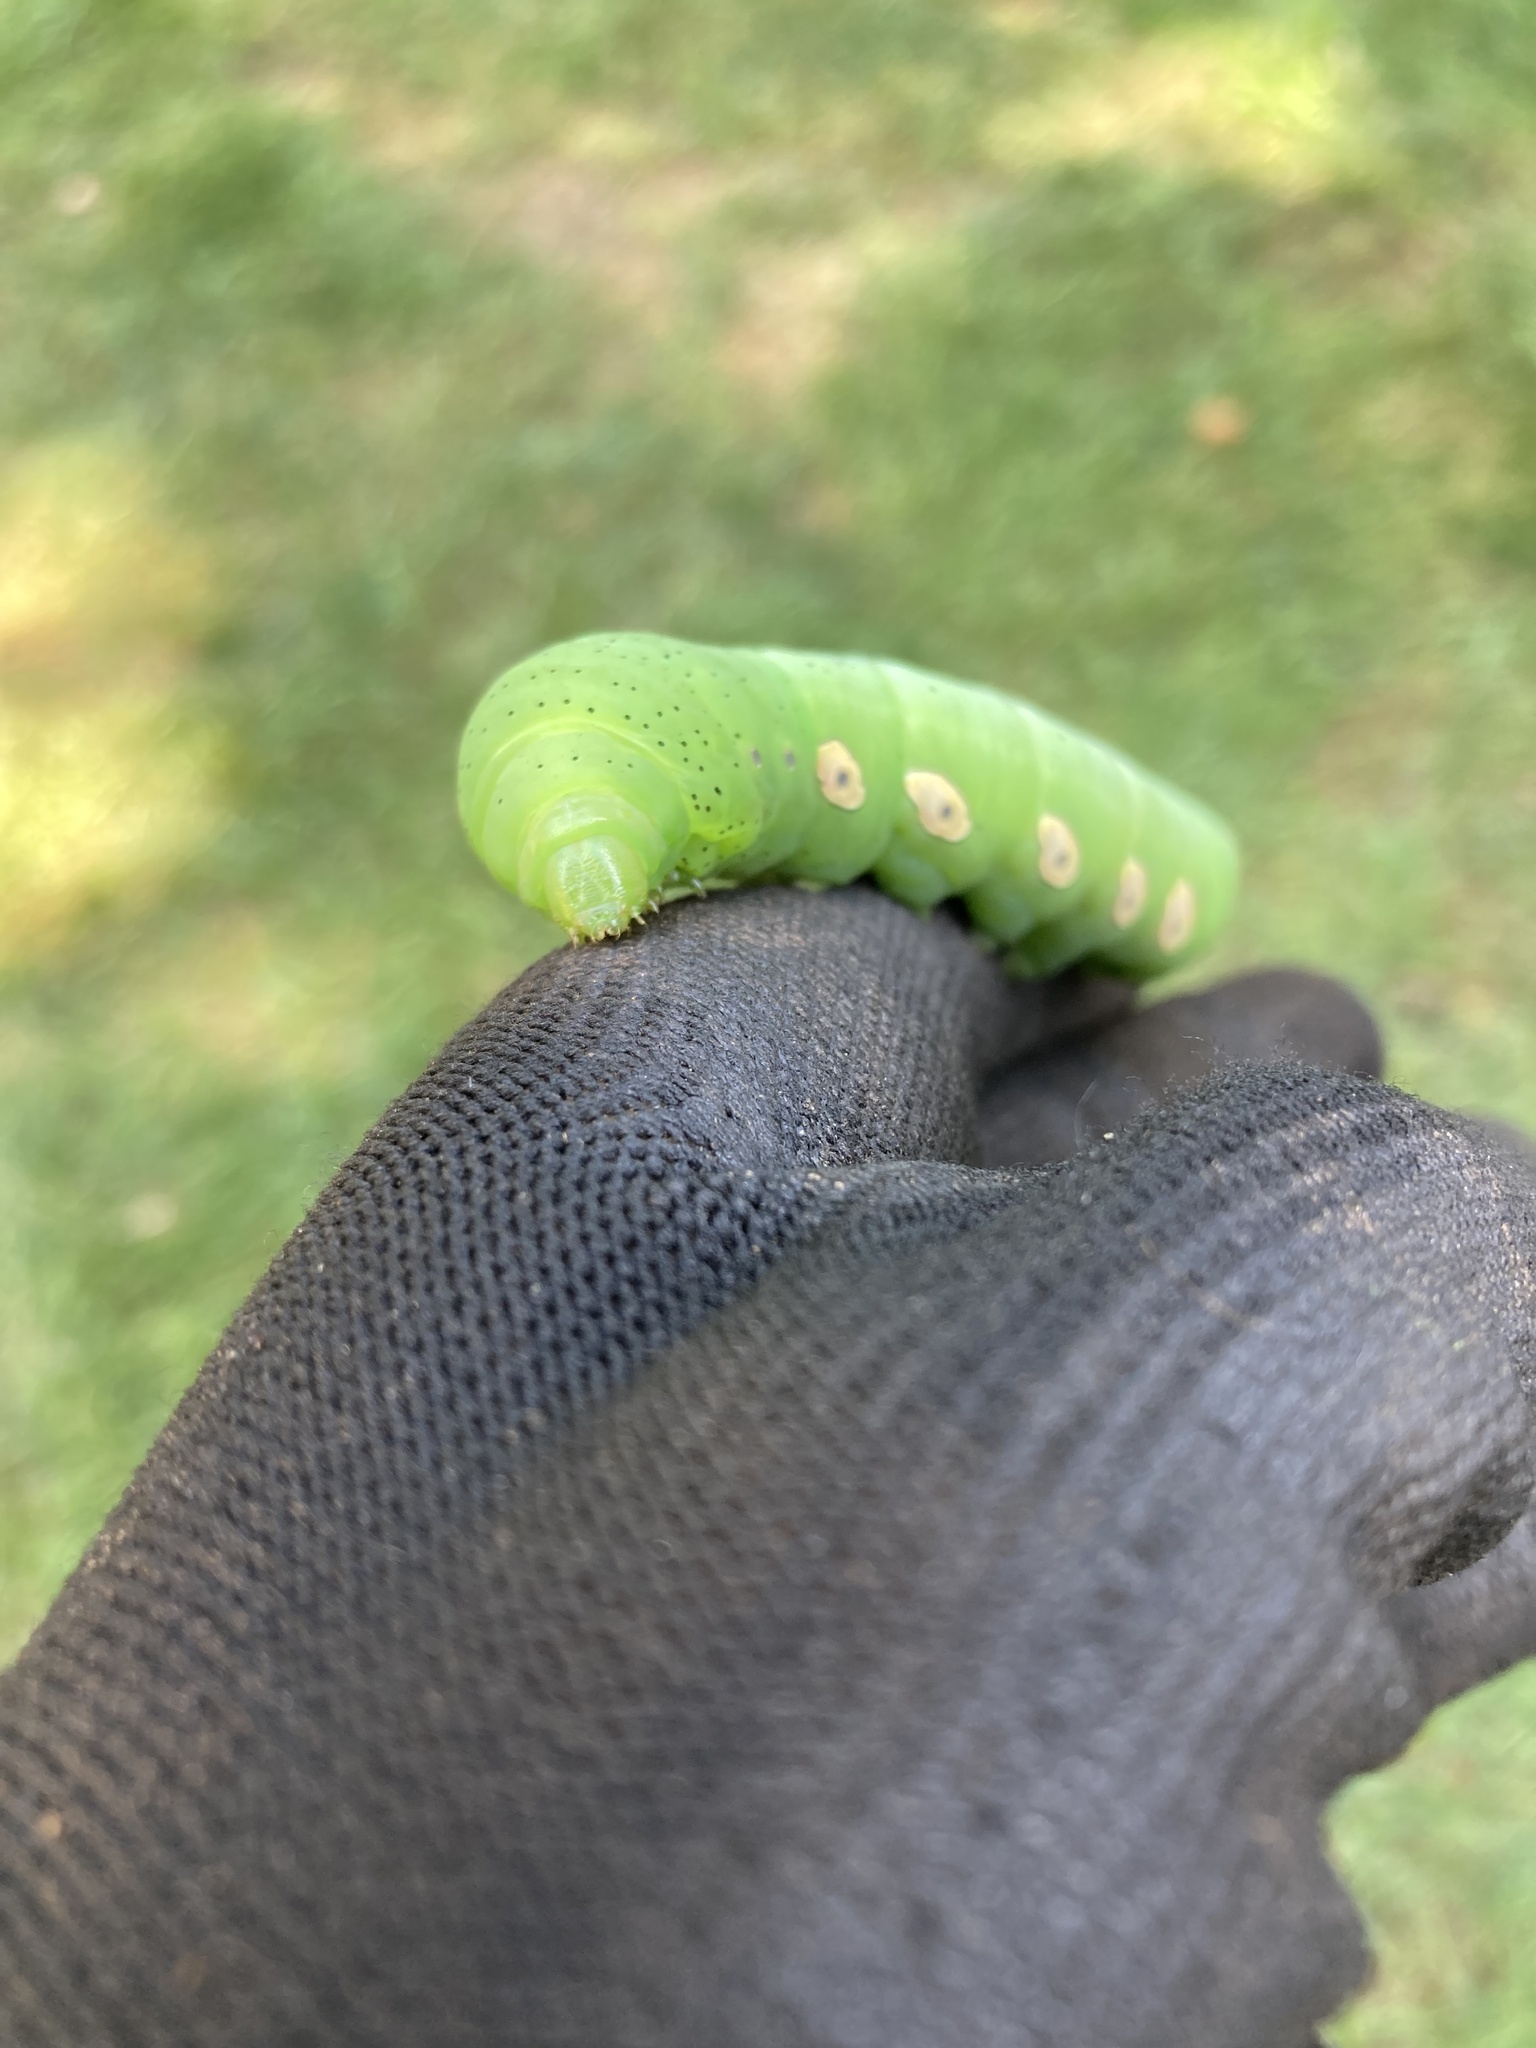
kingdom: Animalia
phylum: Arthropoda
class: Insecta
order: Lepidoptera
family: Sphingidae
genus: Eumorpha
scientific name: Eumorpha pandorus
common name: Pandora sphinx
